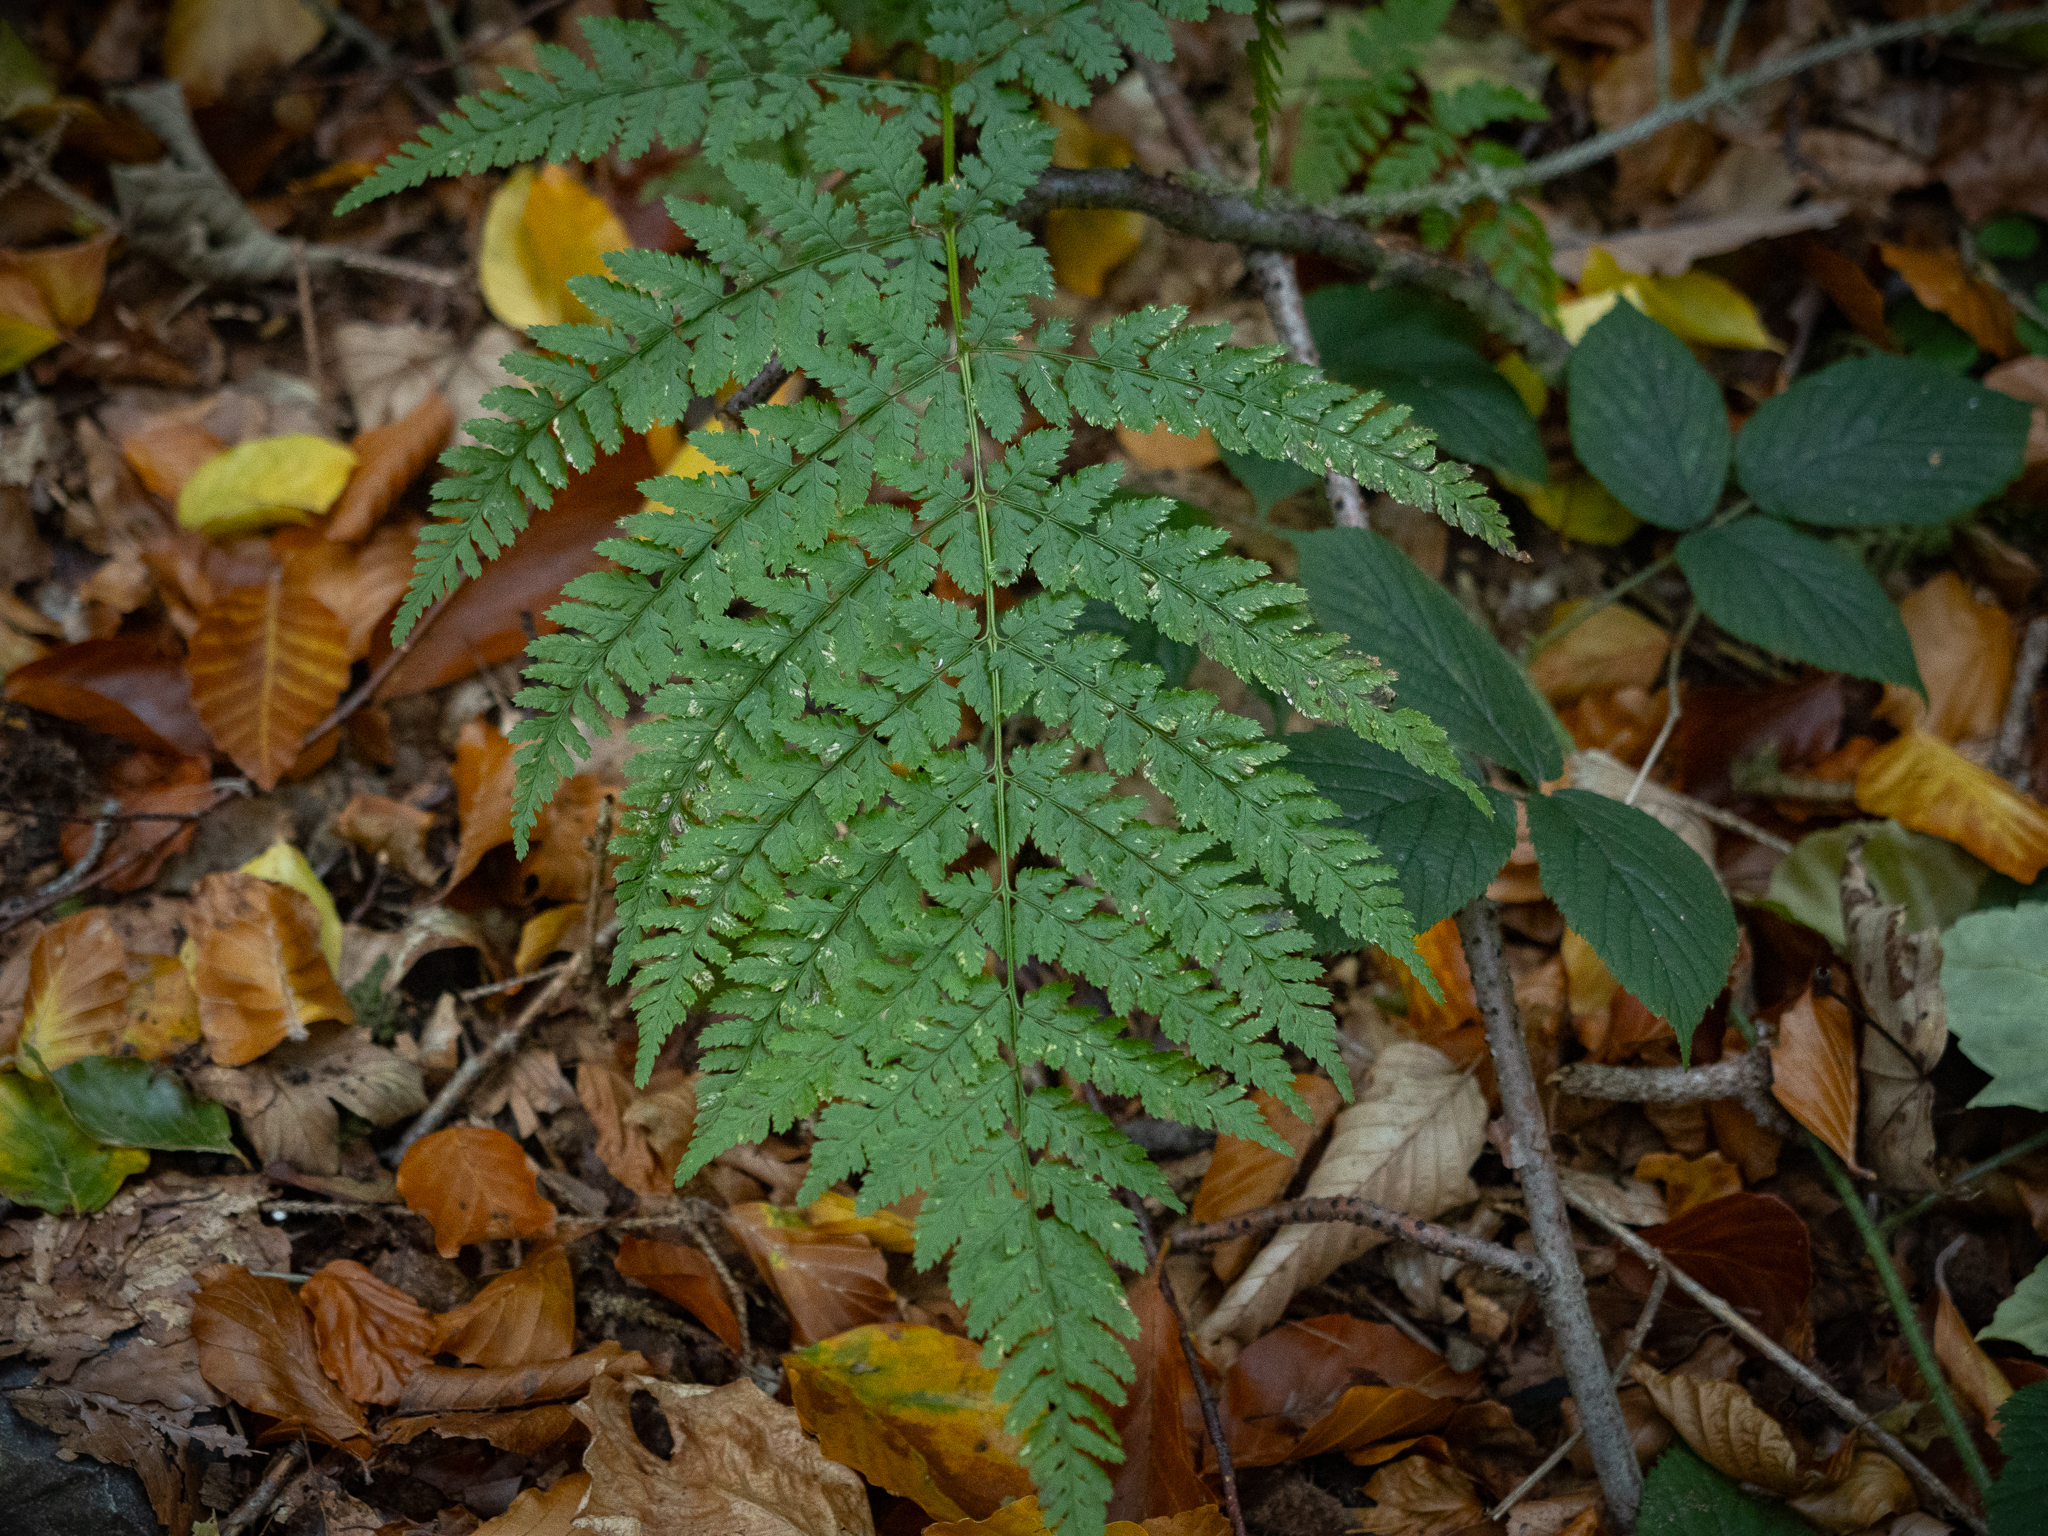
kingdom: Plantae
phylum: Tracheophyta
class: Polypodiopsida
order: Polypodiales
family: Dryopteridaceae
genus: Dryopteris
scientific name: Dryopteris dilatata
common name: Broad buckler-fern
